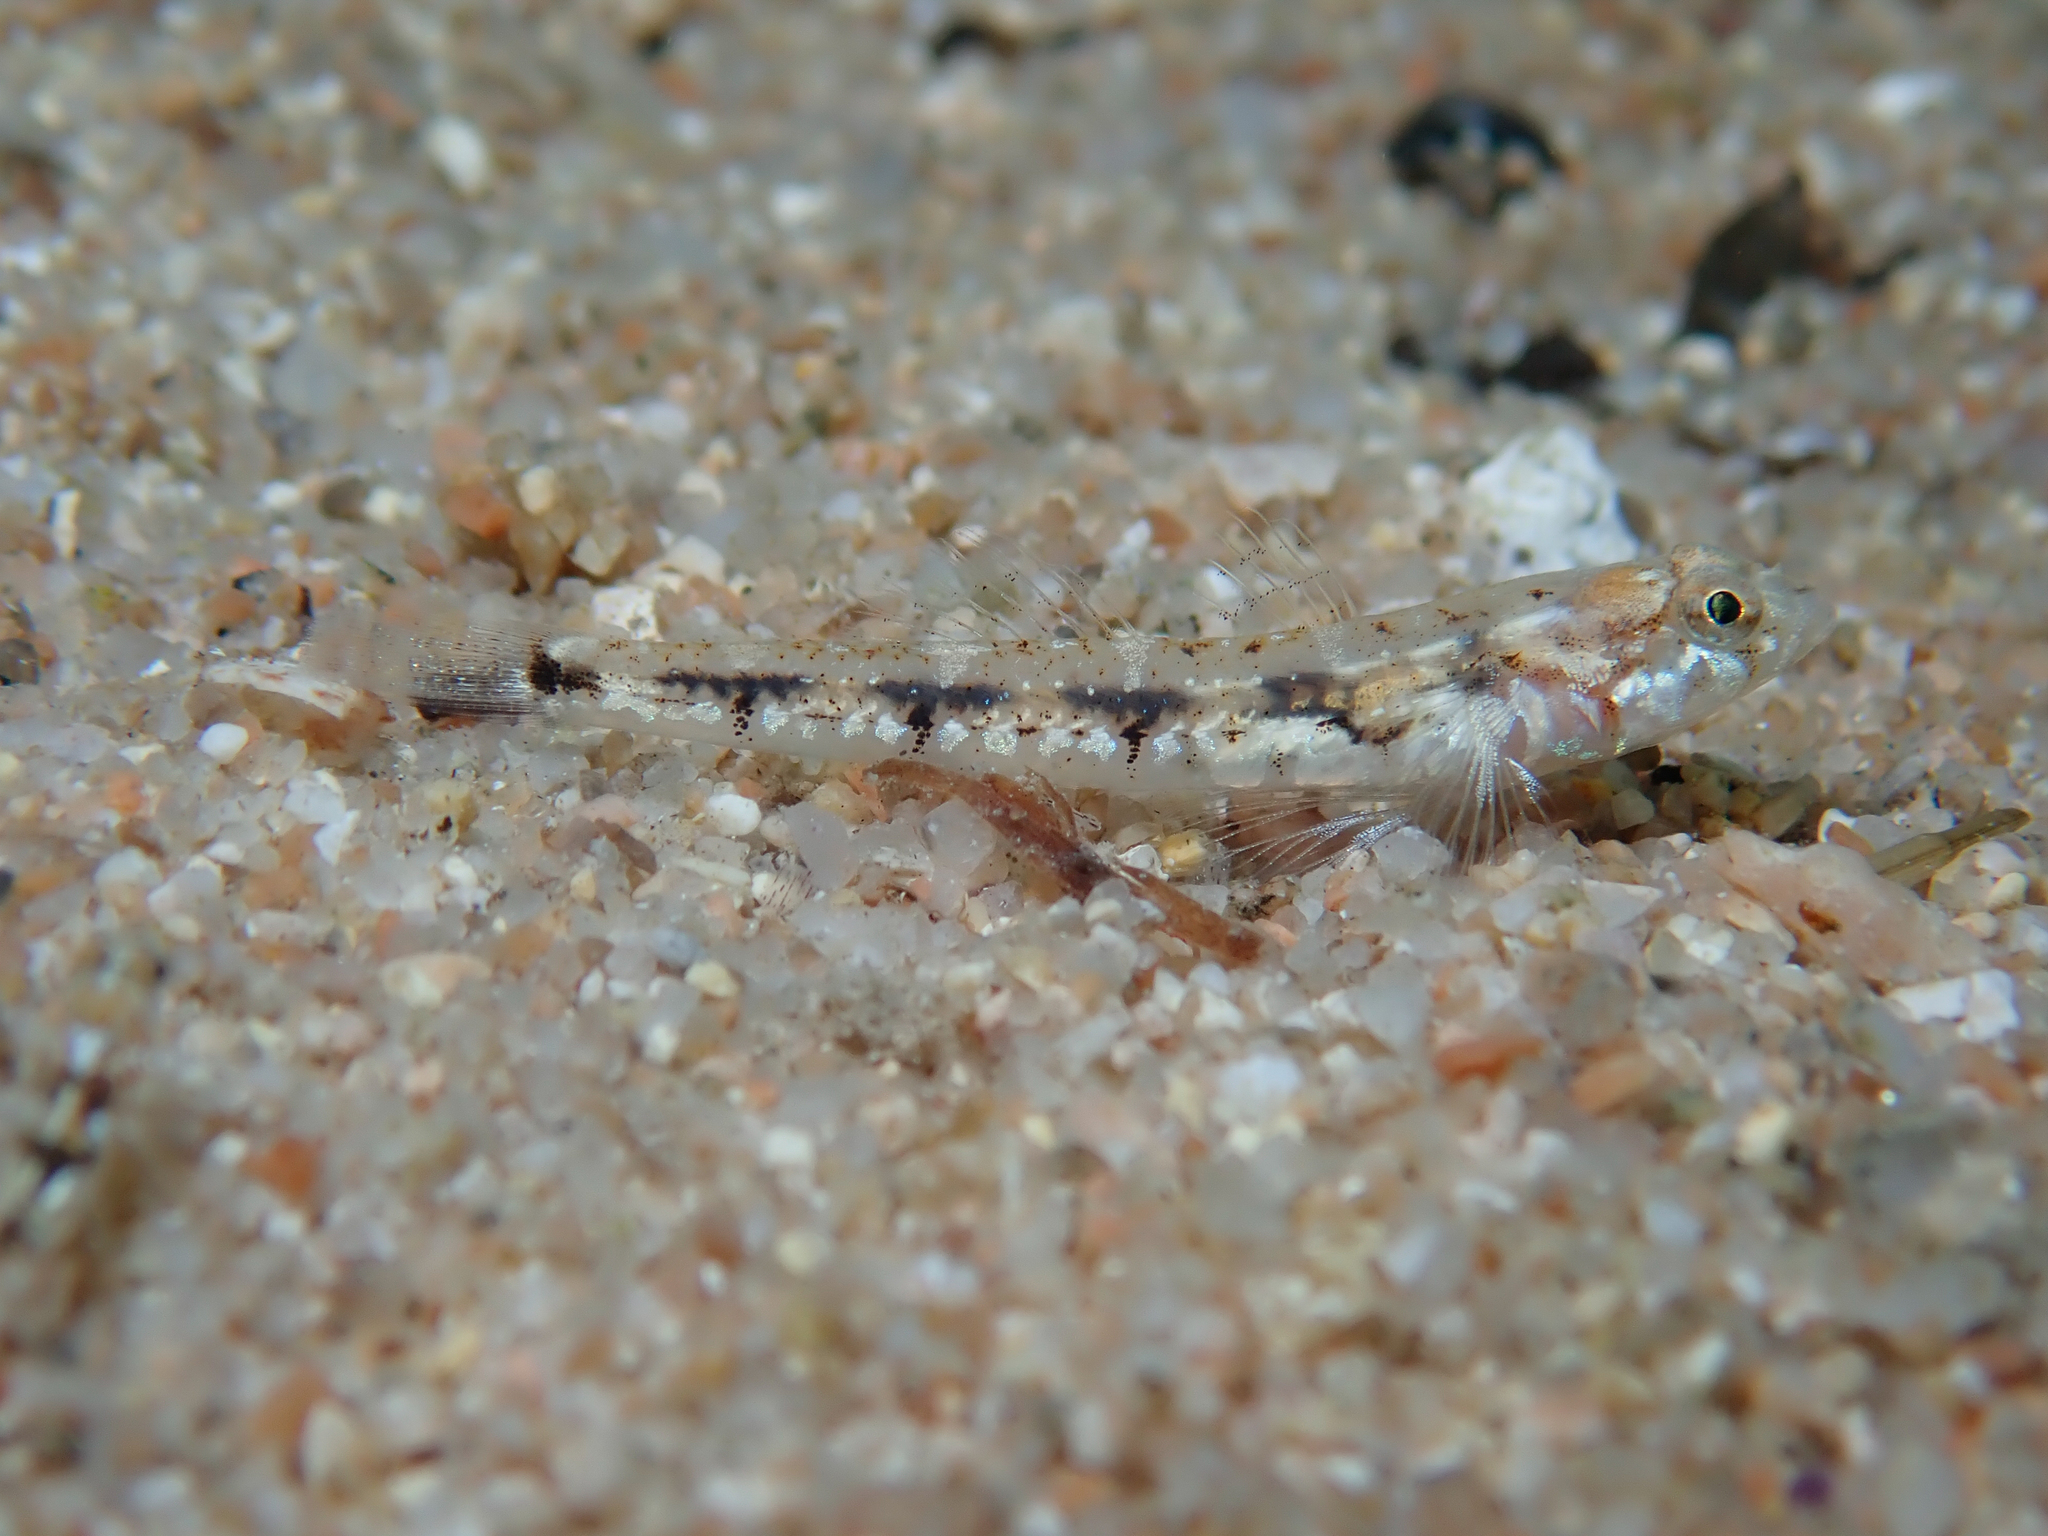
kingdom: Animalia
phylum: Chordata
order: Perciformes
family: Gobiidae
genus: Pomatoschistus
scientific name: Pomatoschistus bathi
